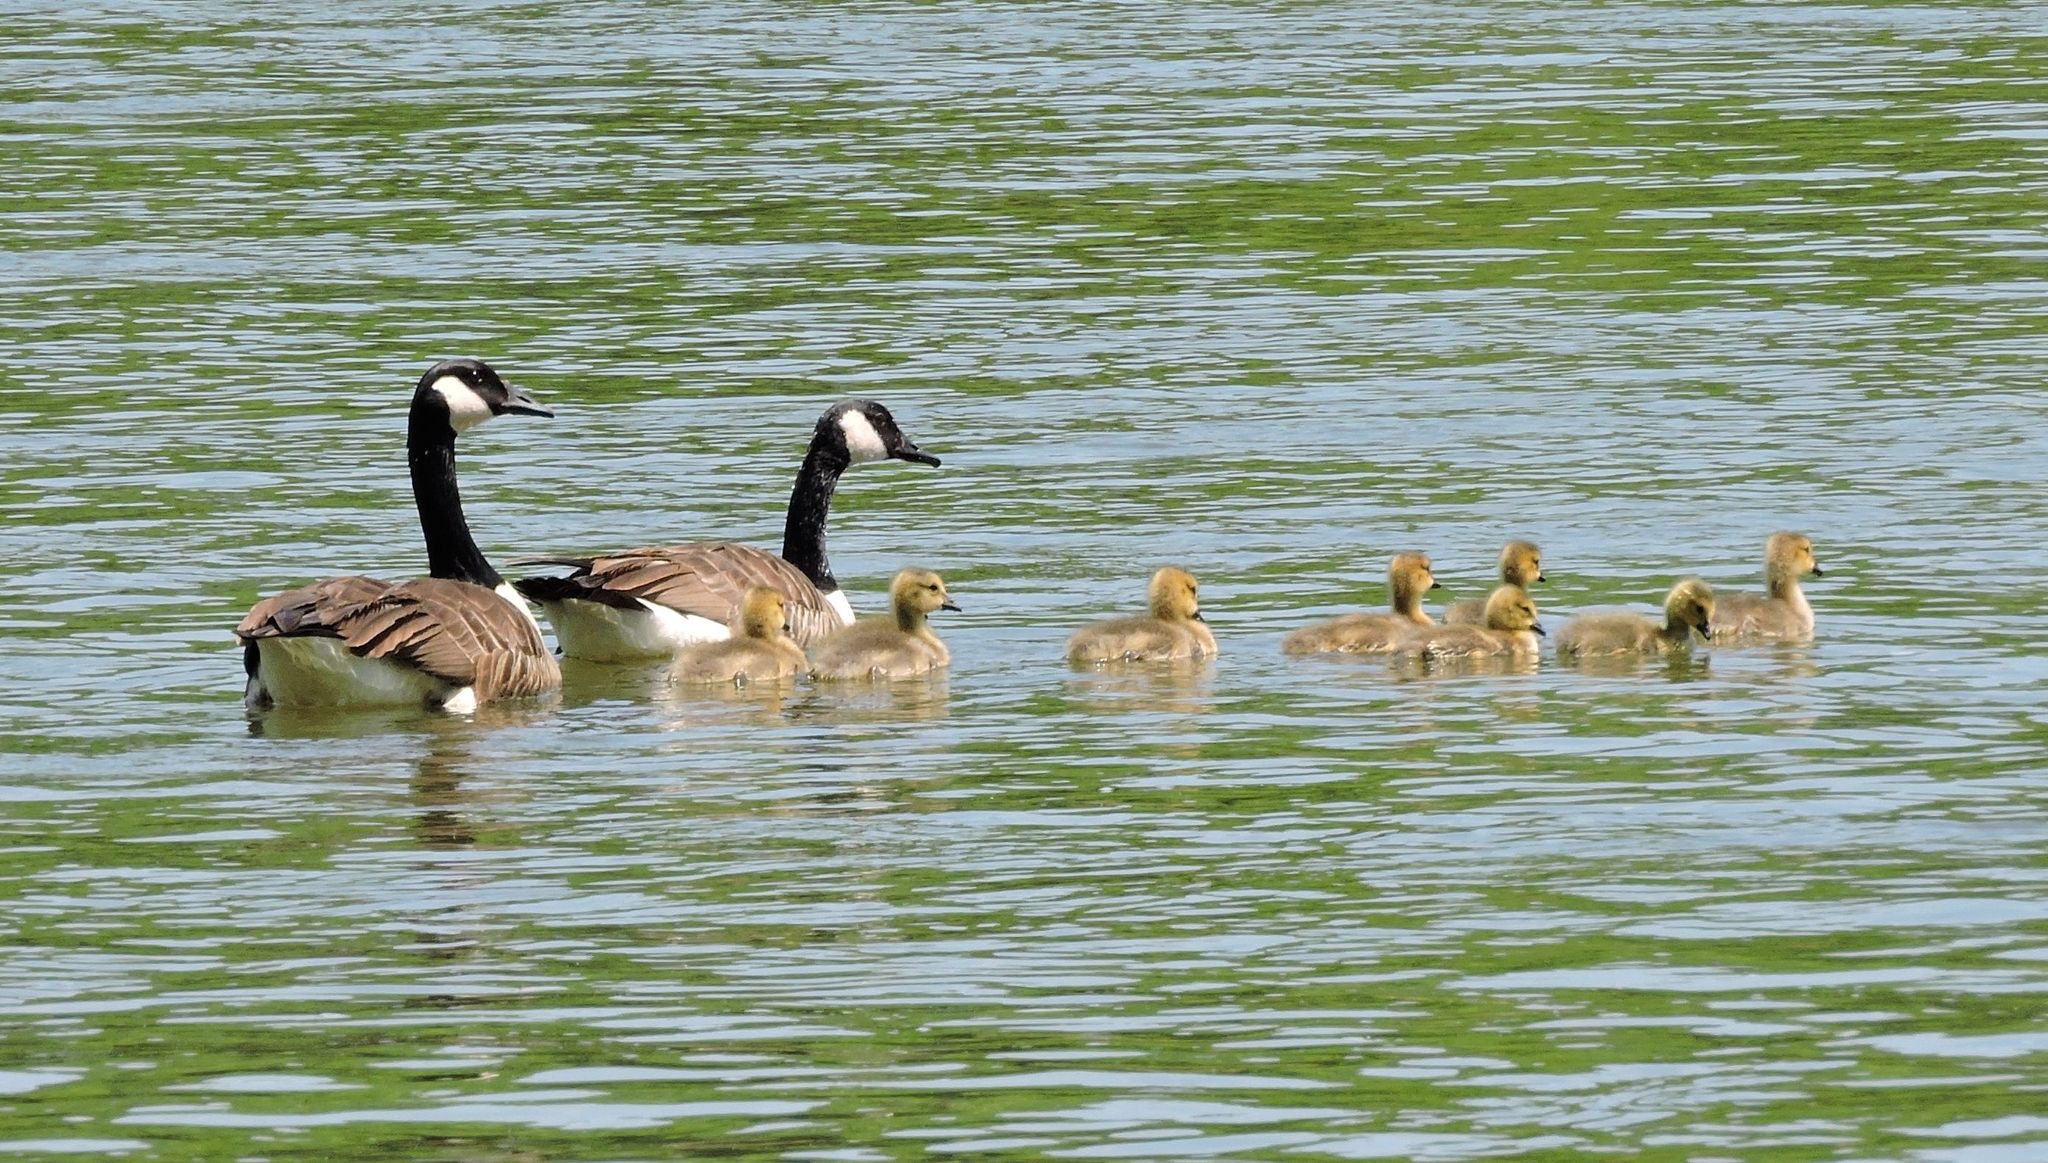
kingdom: Animalia
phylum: Chordata
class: Aves
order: Anseriformes
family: Anatidae
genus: Branta
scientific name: Branta canadensis
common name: Canada goose
